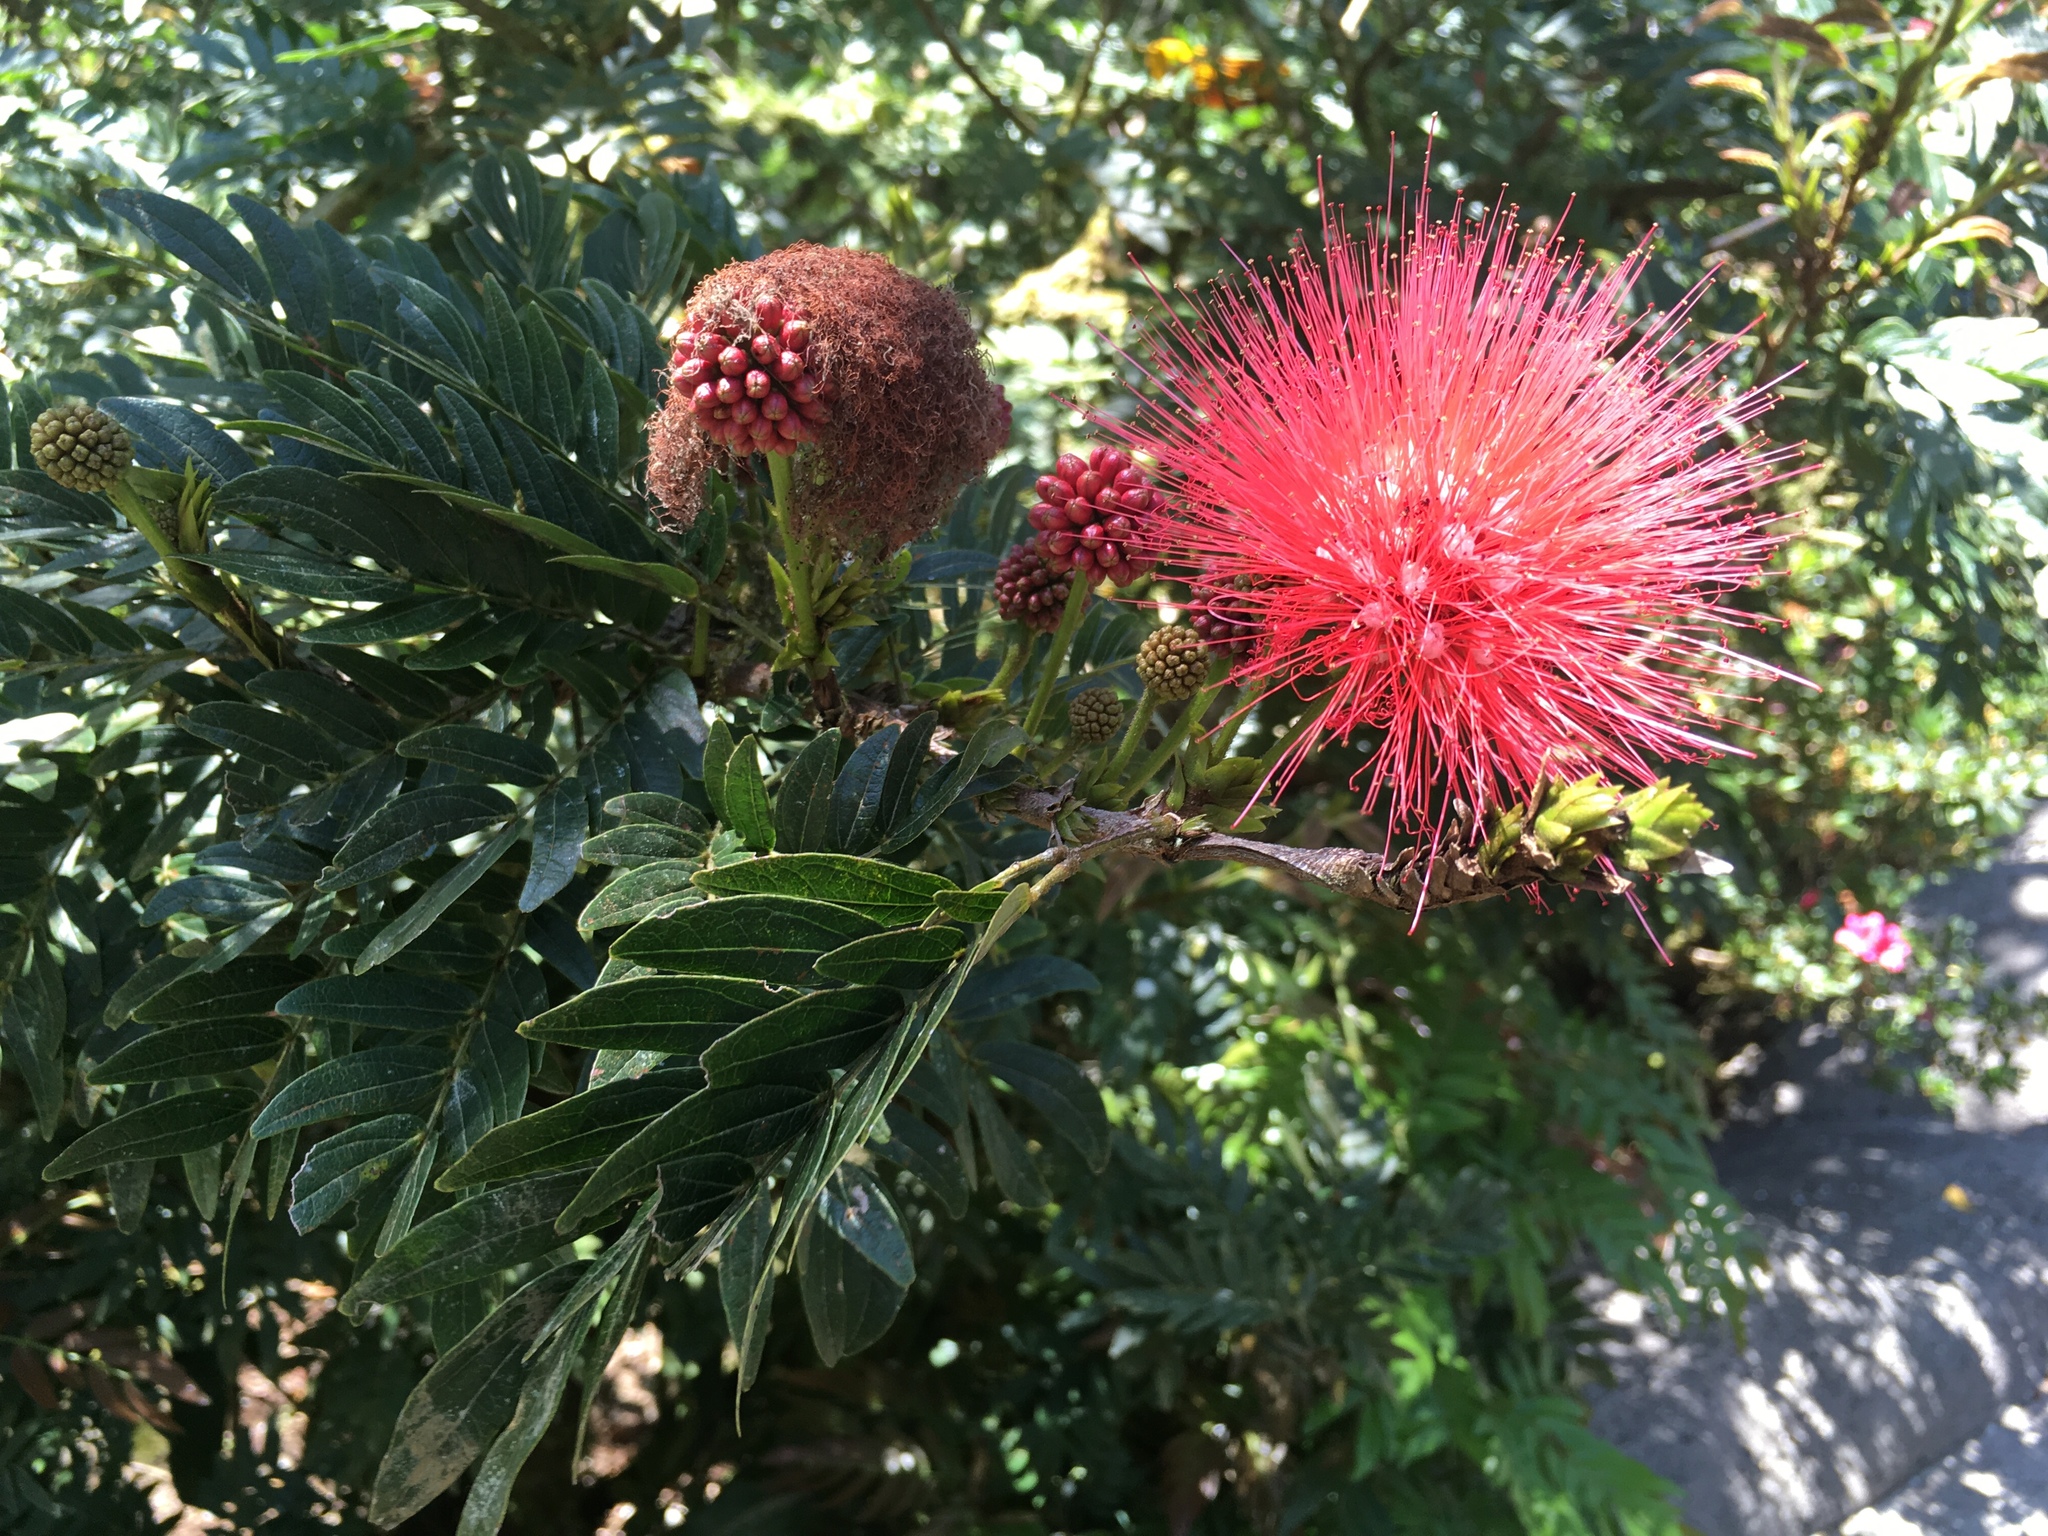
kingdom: Plantae
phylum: Tracheophyta
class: Magnoliopsida
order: Fabales
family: Fabaceae
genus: Calliandra
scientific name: Calliandra haematocephala
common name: Blood red tassel flower
